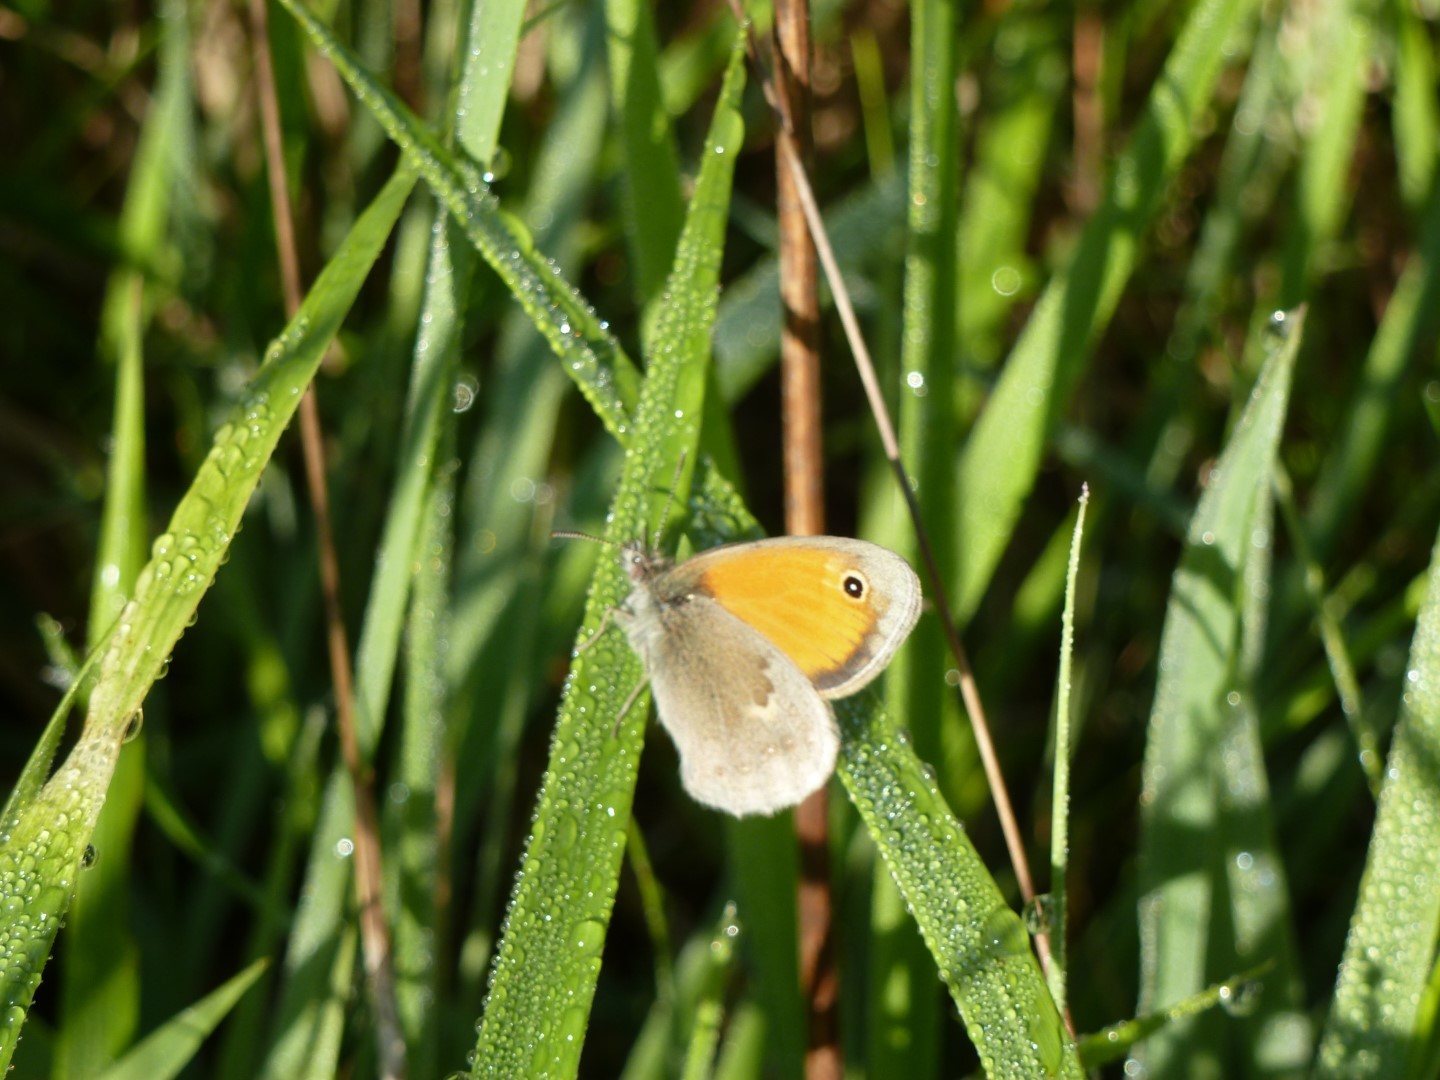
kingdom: Animalia
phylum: Arthropoda
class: Insecta
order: Lepidoptera
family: Nymphalidae
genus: Coenonympha
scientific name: Coenonympha pamphilus
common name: Small heath
